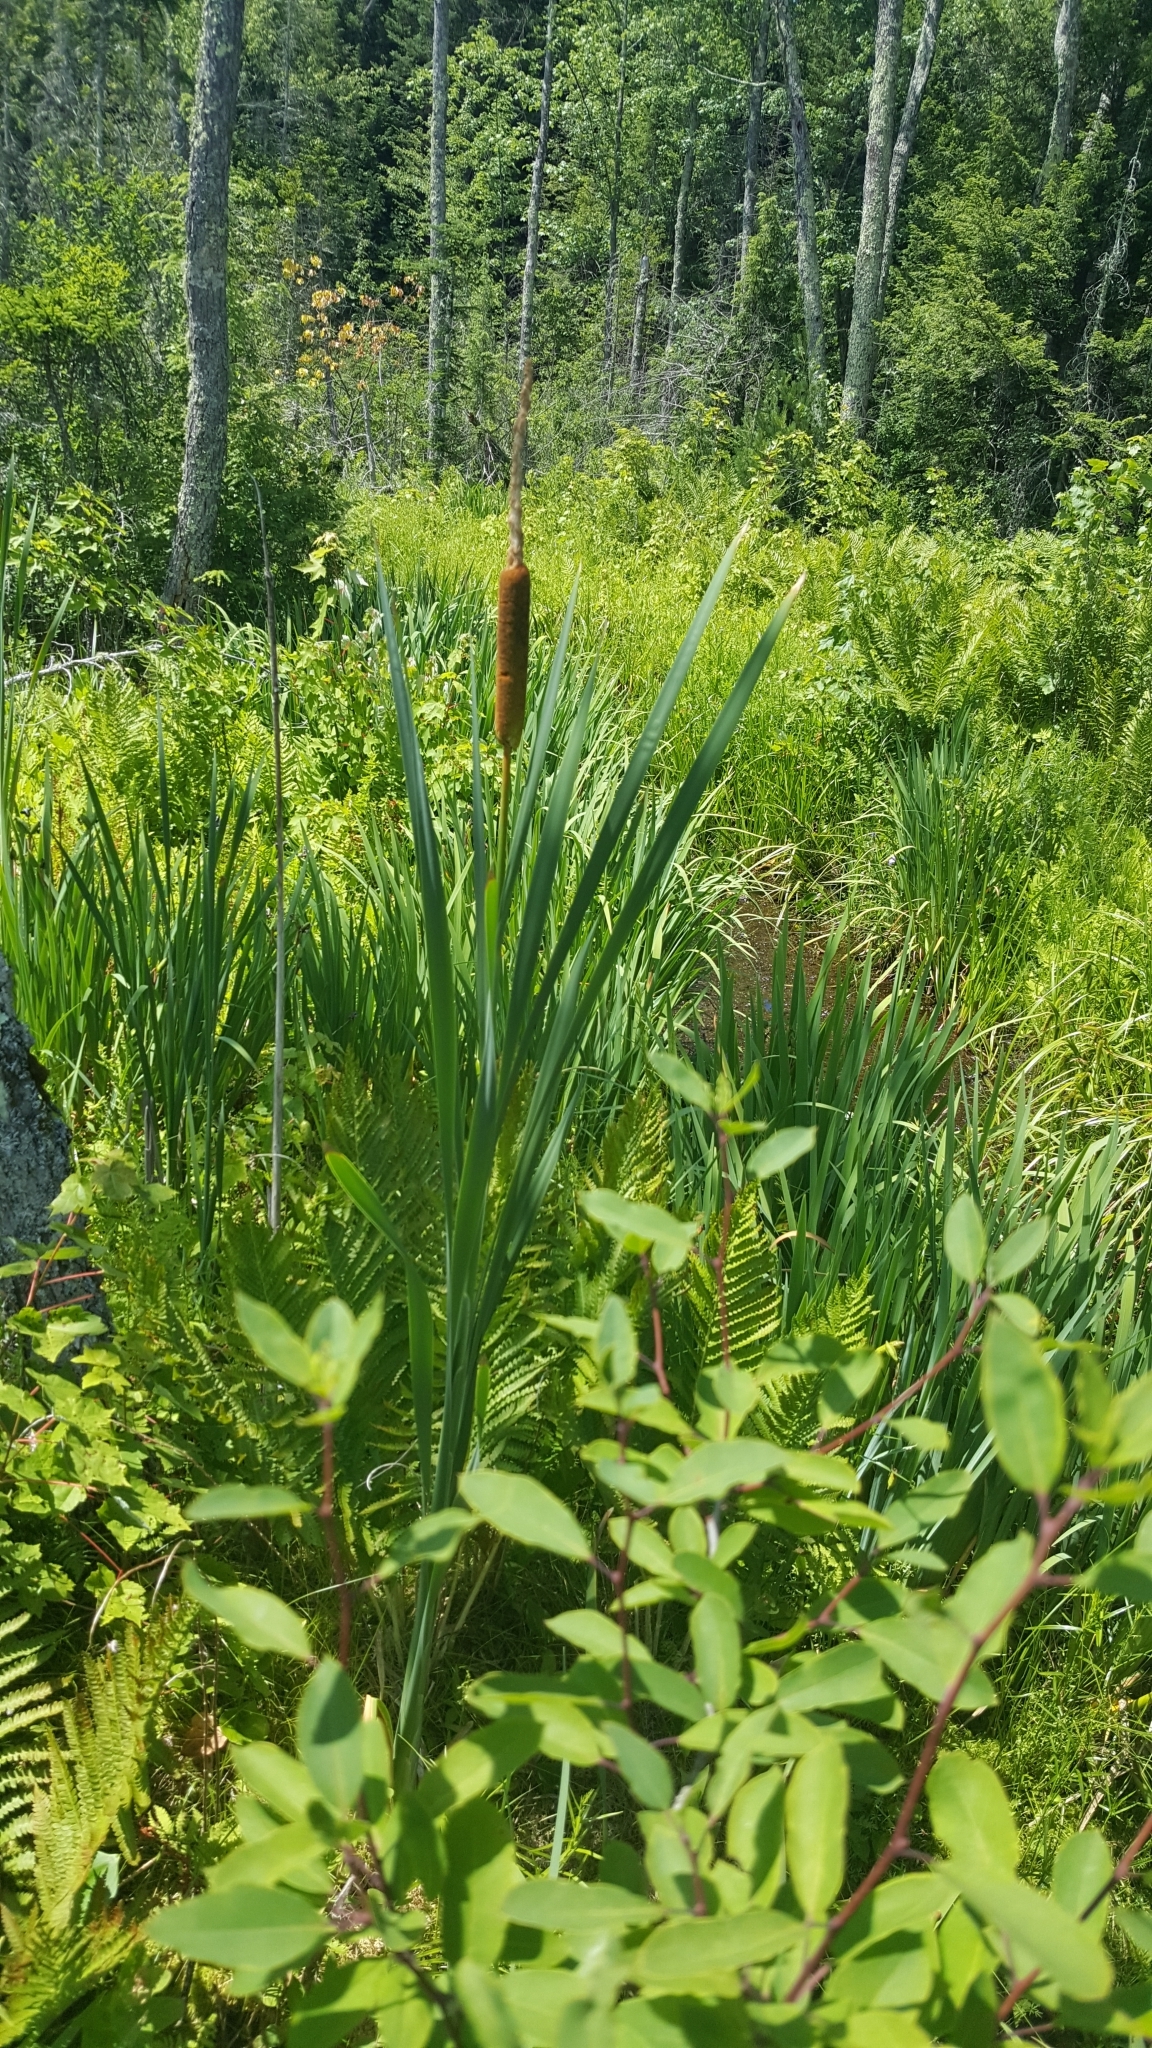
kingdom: Plantae
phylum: Tracheophyta
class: Liliopsida
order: Poales
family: Typhaceae
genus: Typha
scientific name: Typha latifolia
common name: Broadleaf cattail
